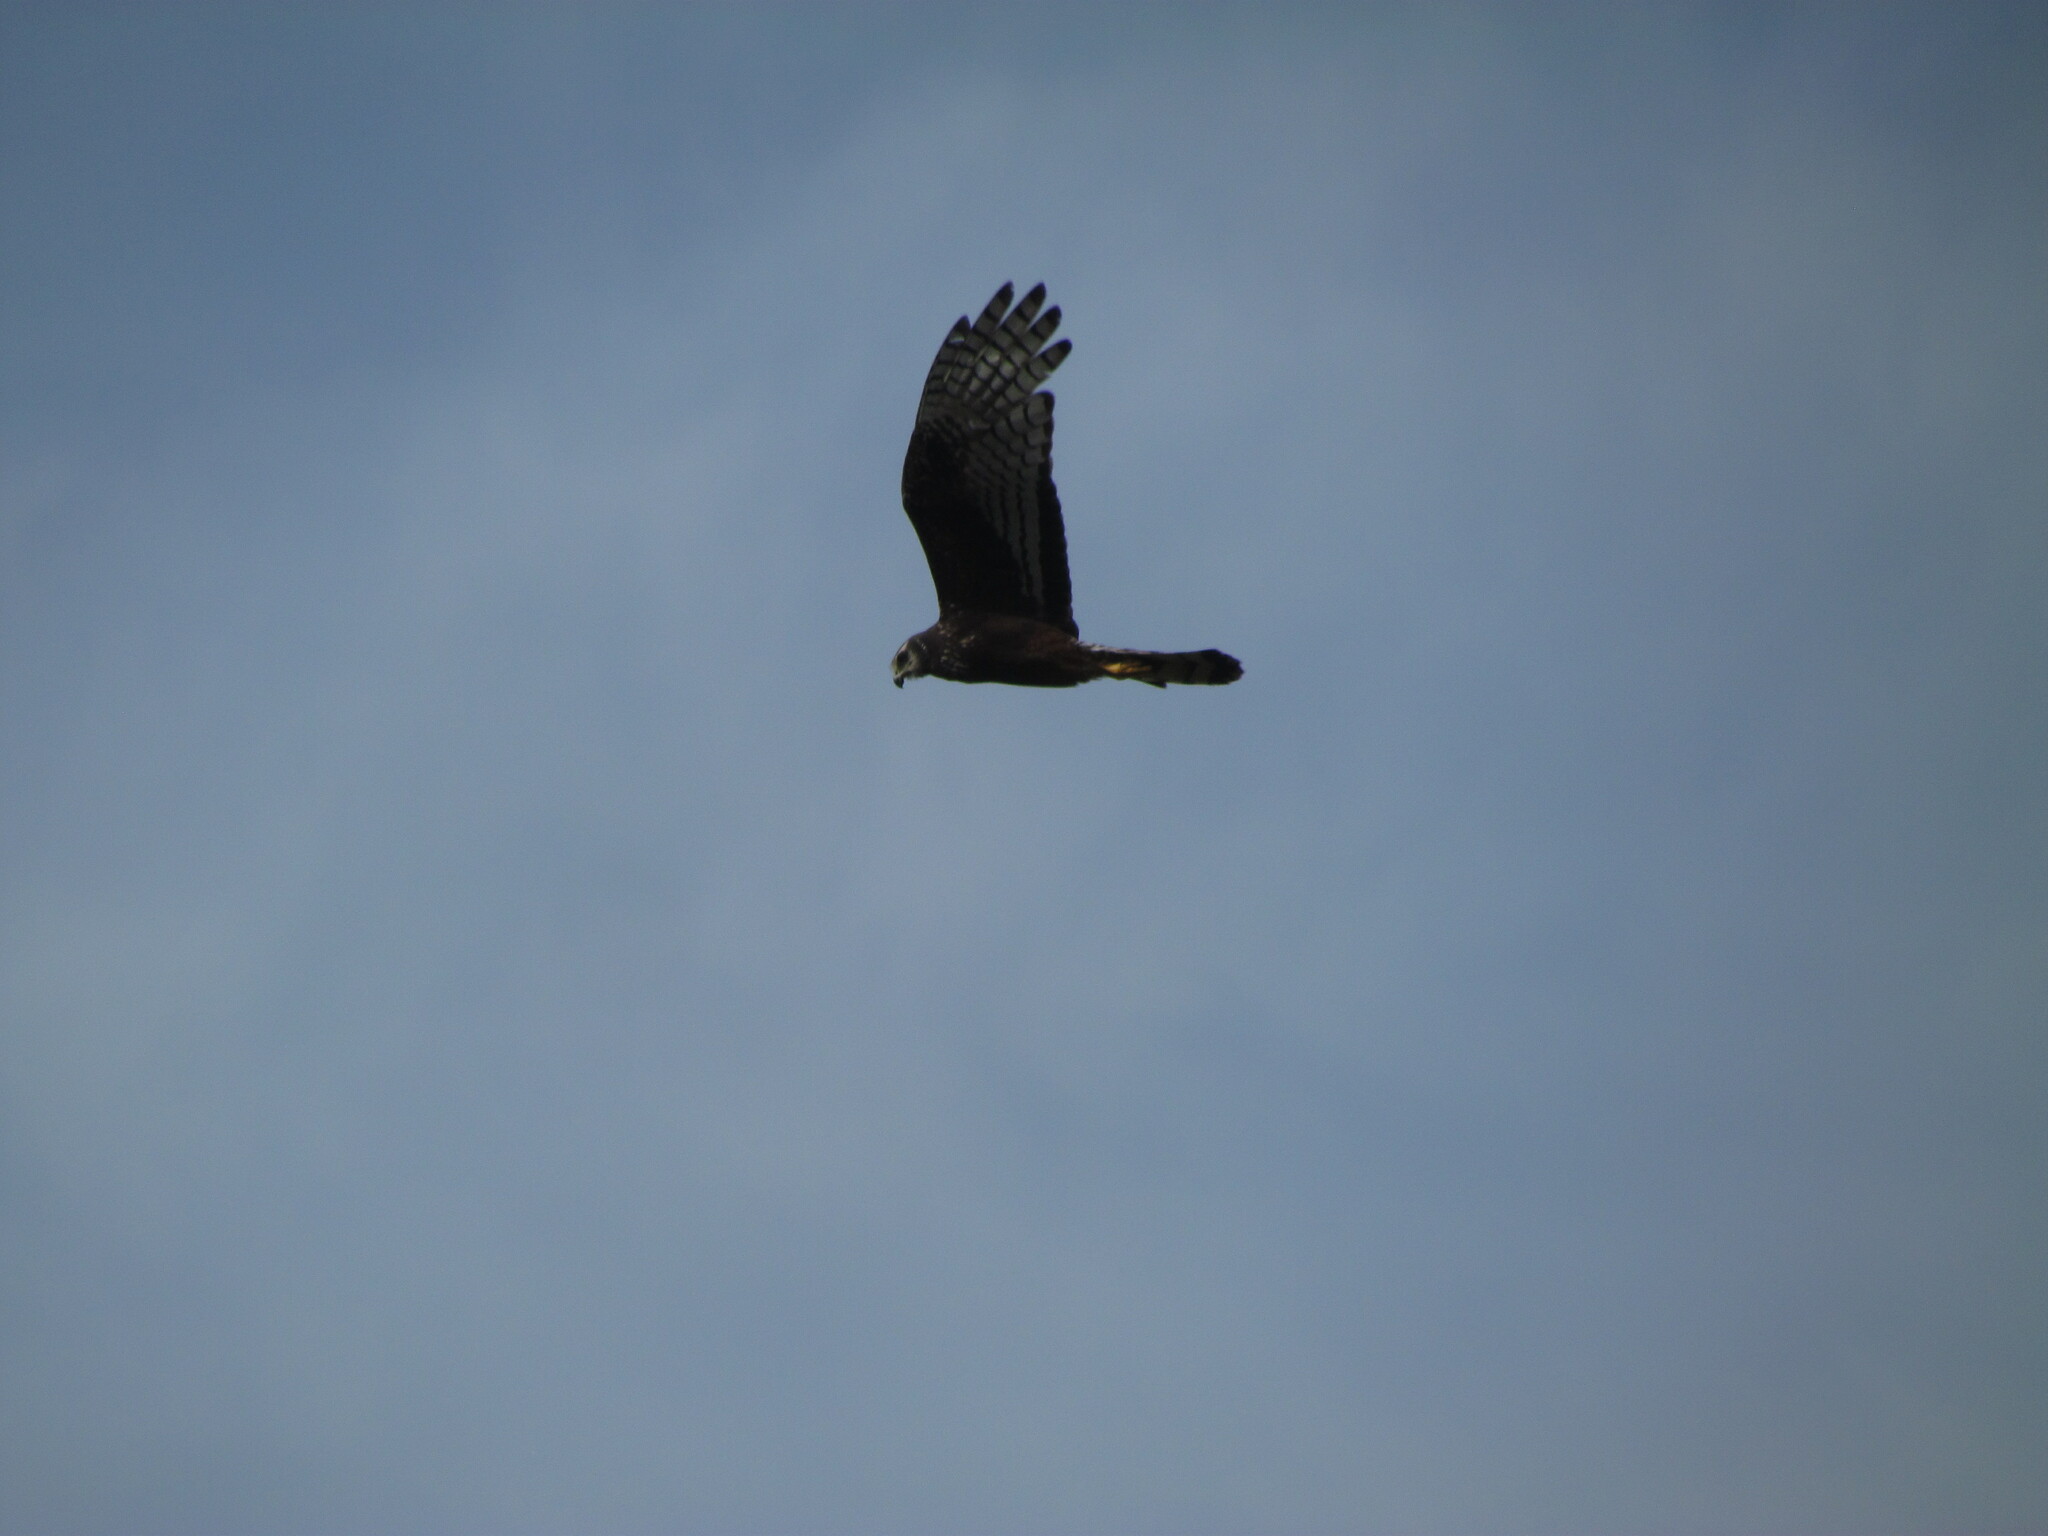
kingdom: Animalia
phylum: Chordata
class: Aves
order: Accipitriformes
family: Accipitridae
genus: Circus
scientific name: Circus buffoni
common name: Long-winged harrier
